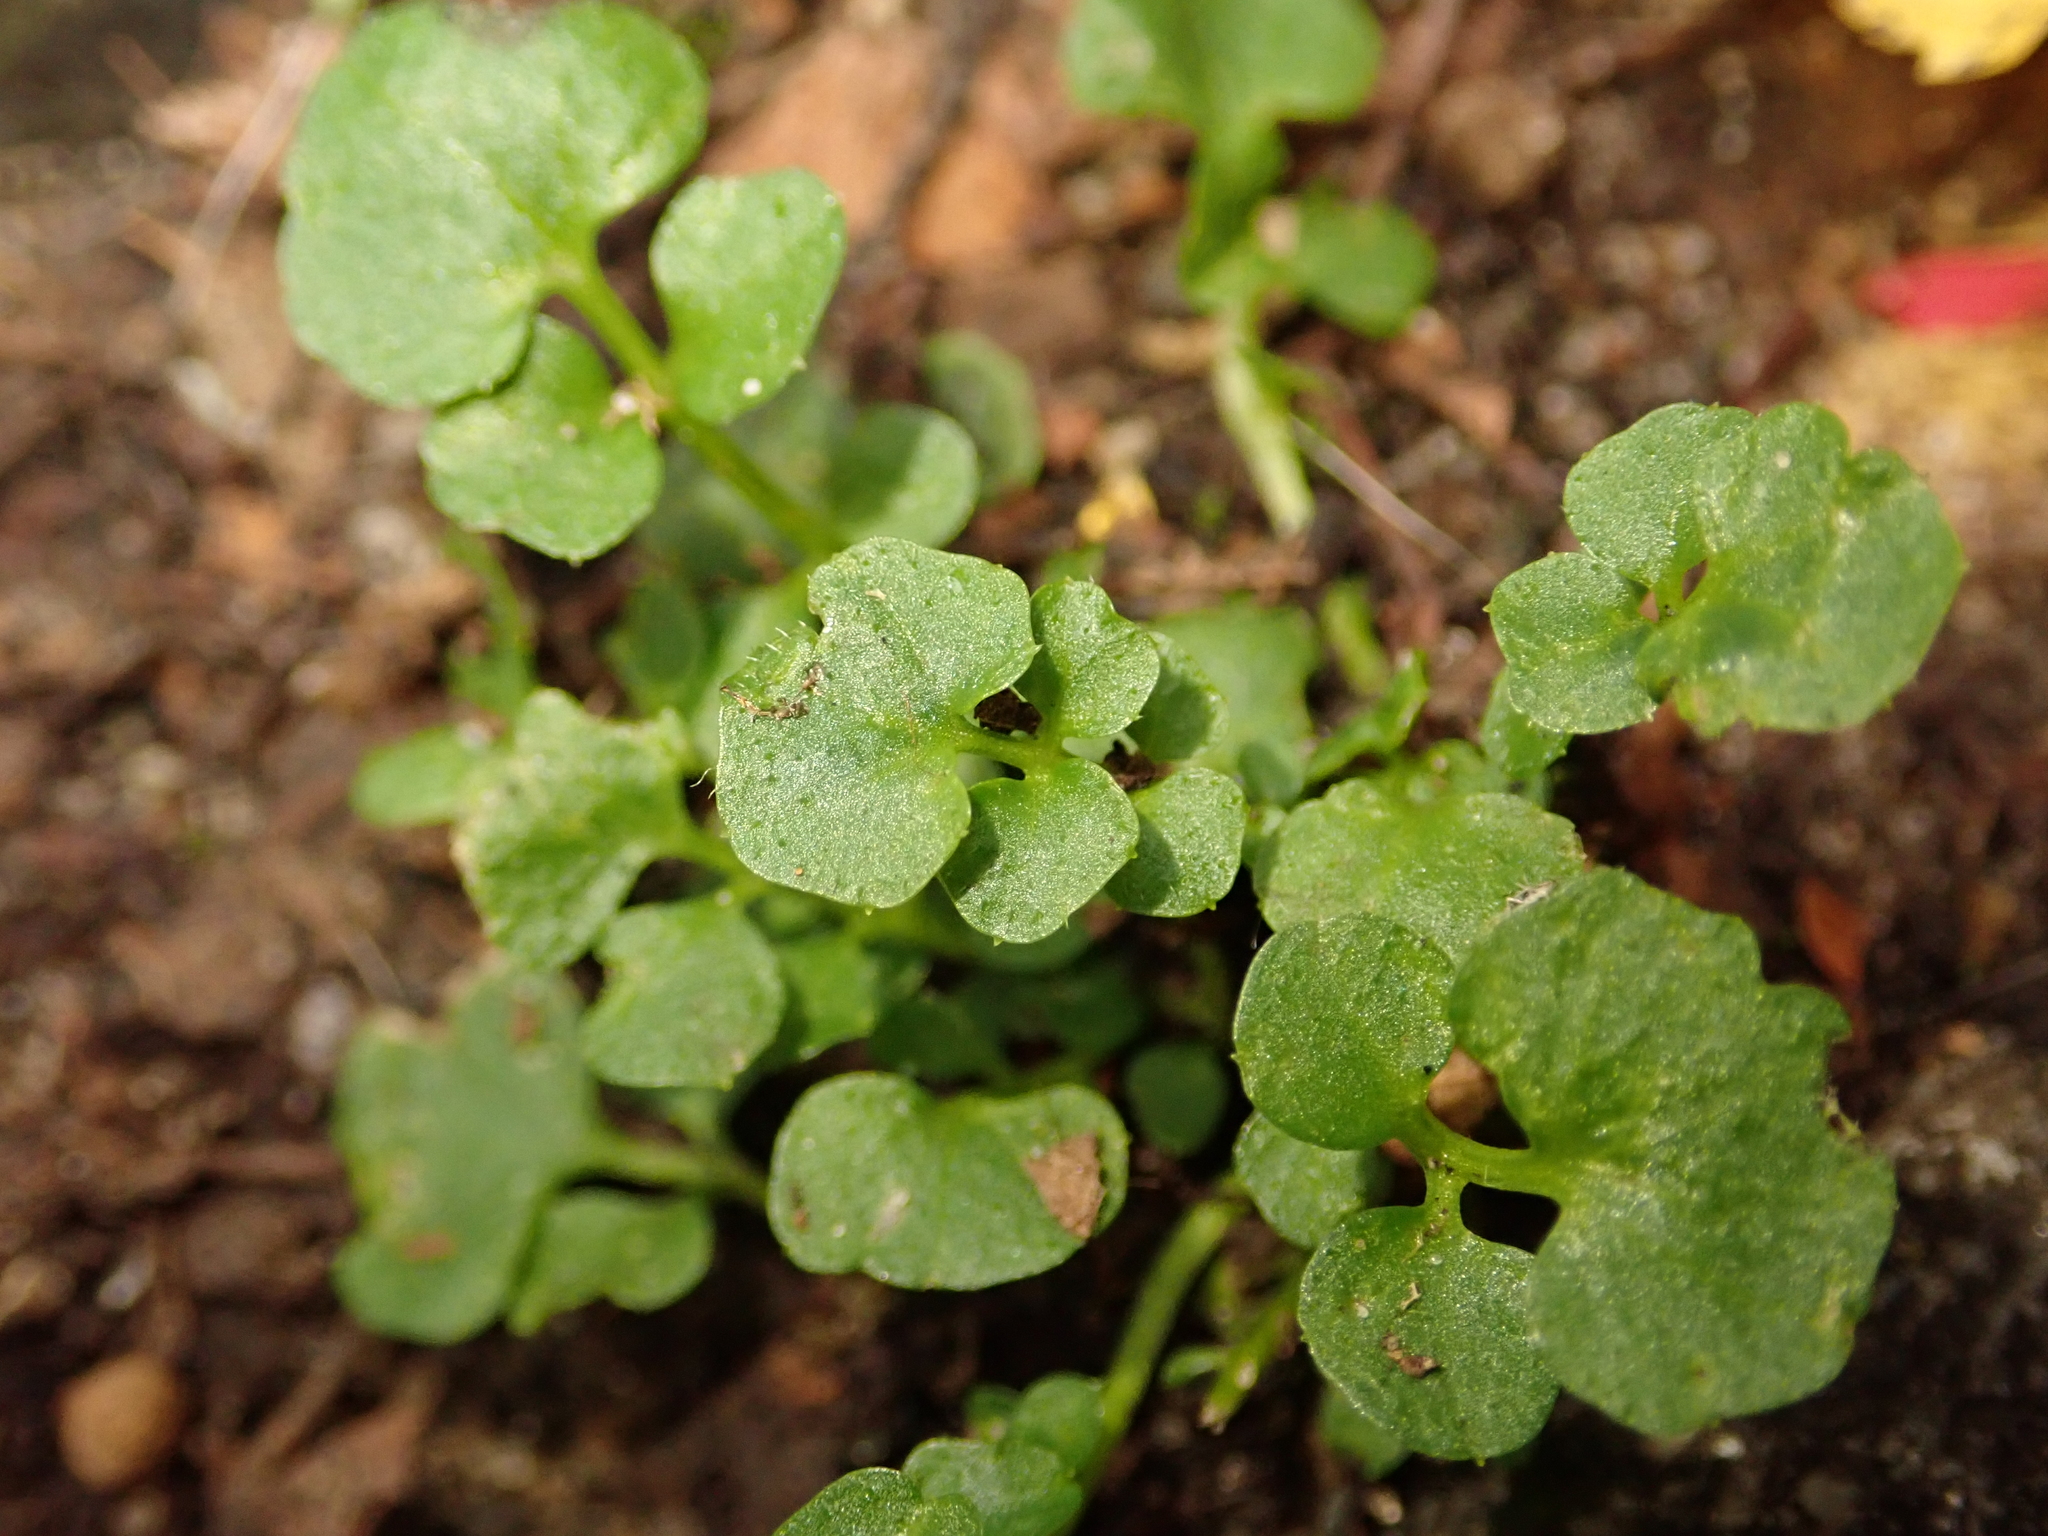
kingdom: Plantae
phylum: Tracheophyta
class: Magnoliopsida
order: Brassicales
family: Brassicaceae
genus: Cardamine
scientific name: Cardamine hirsuta
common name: Hairy bittercress
